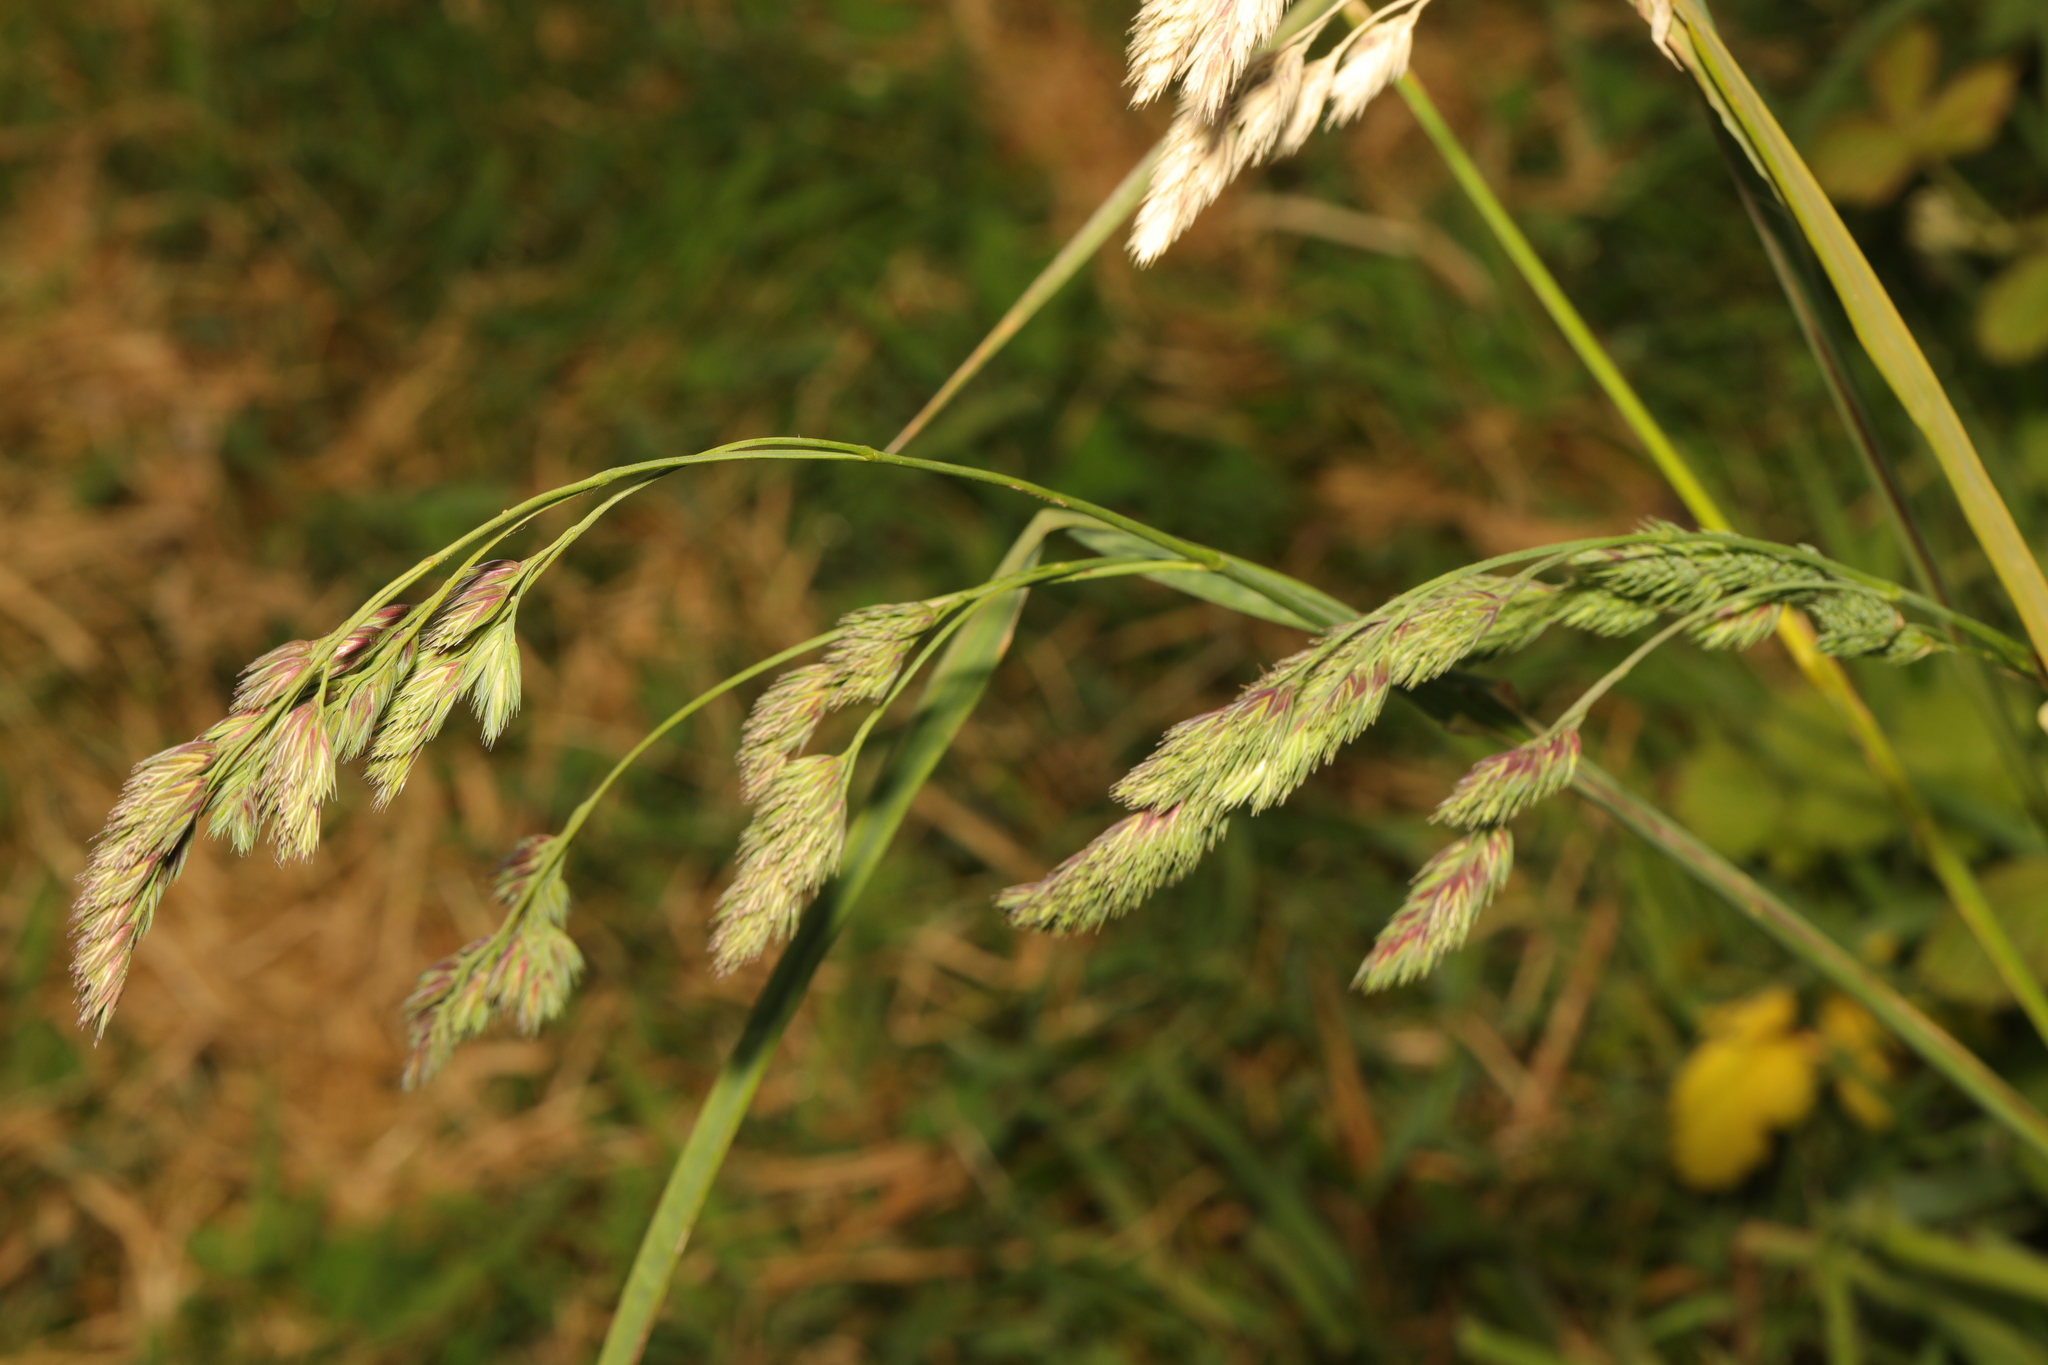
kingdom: Plantae
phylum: Tracheophyta
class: Liliopsida
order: Poales
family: Poaceae
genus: Dactylis
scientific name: Dactylis glomerata
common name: Orchardgrass
